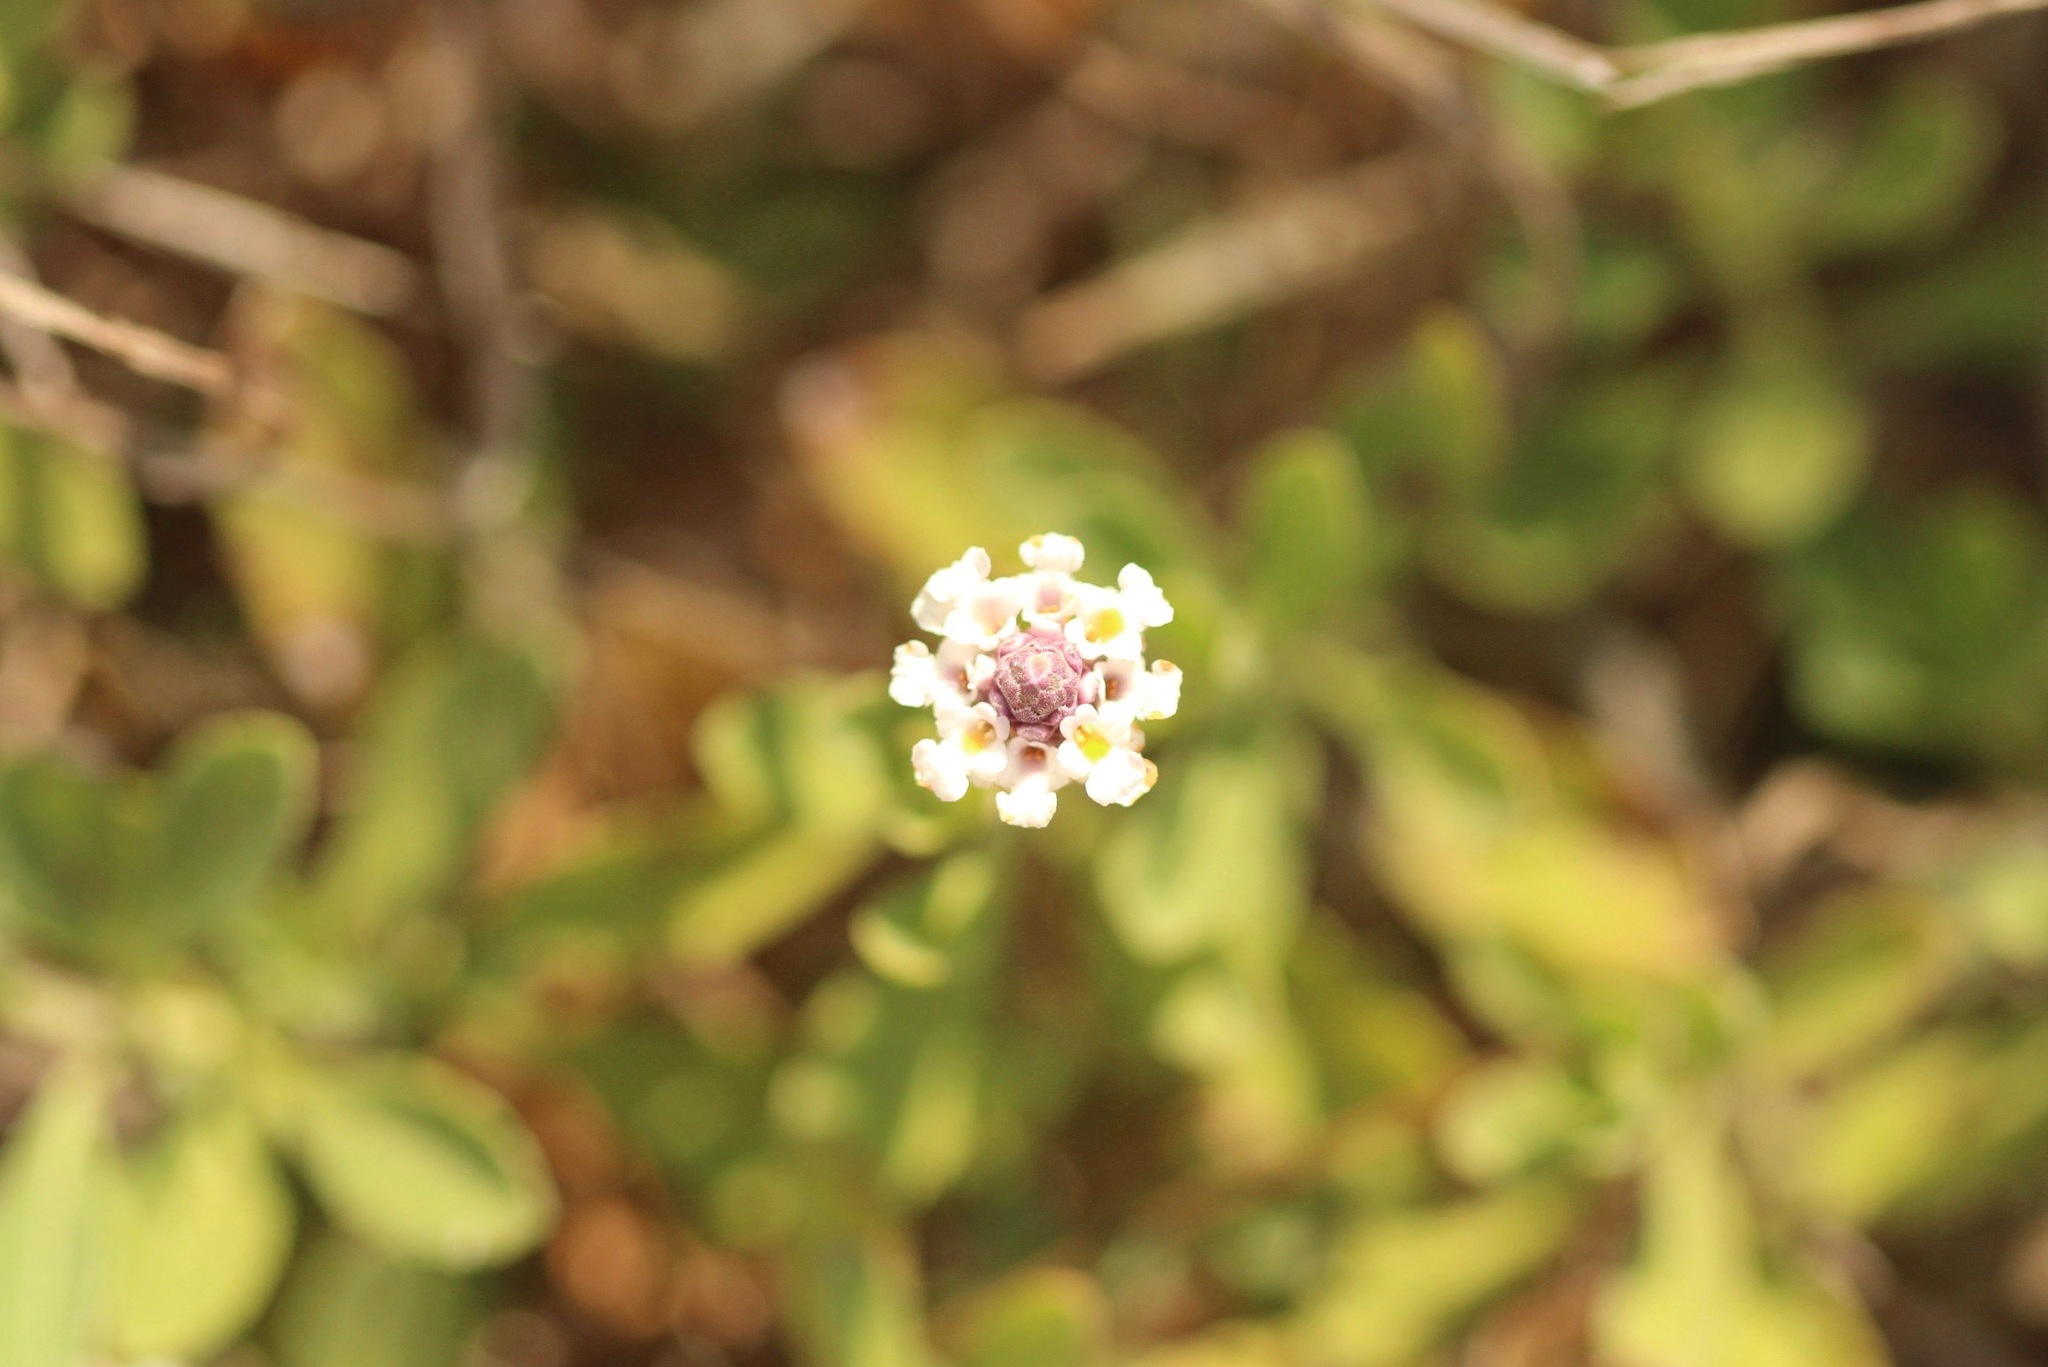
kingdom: Plantae
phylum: Tracheophyta
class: Magnoliopsida
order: Lamiales
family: Verbenaceae
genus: Phyla
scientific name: Phyla nodiflora
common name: Frogfruit
